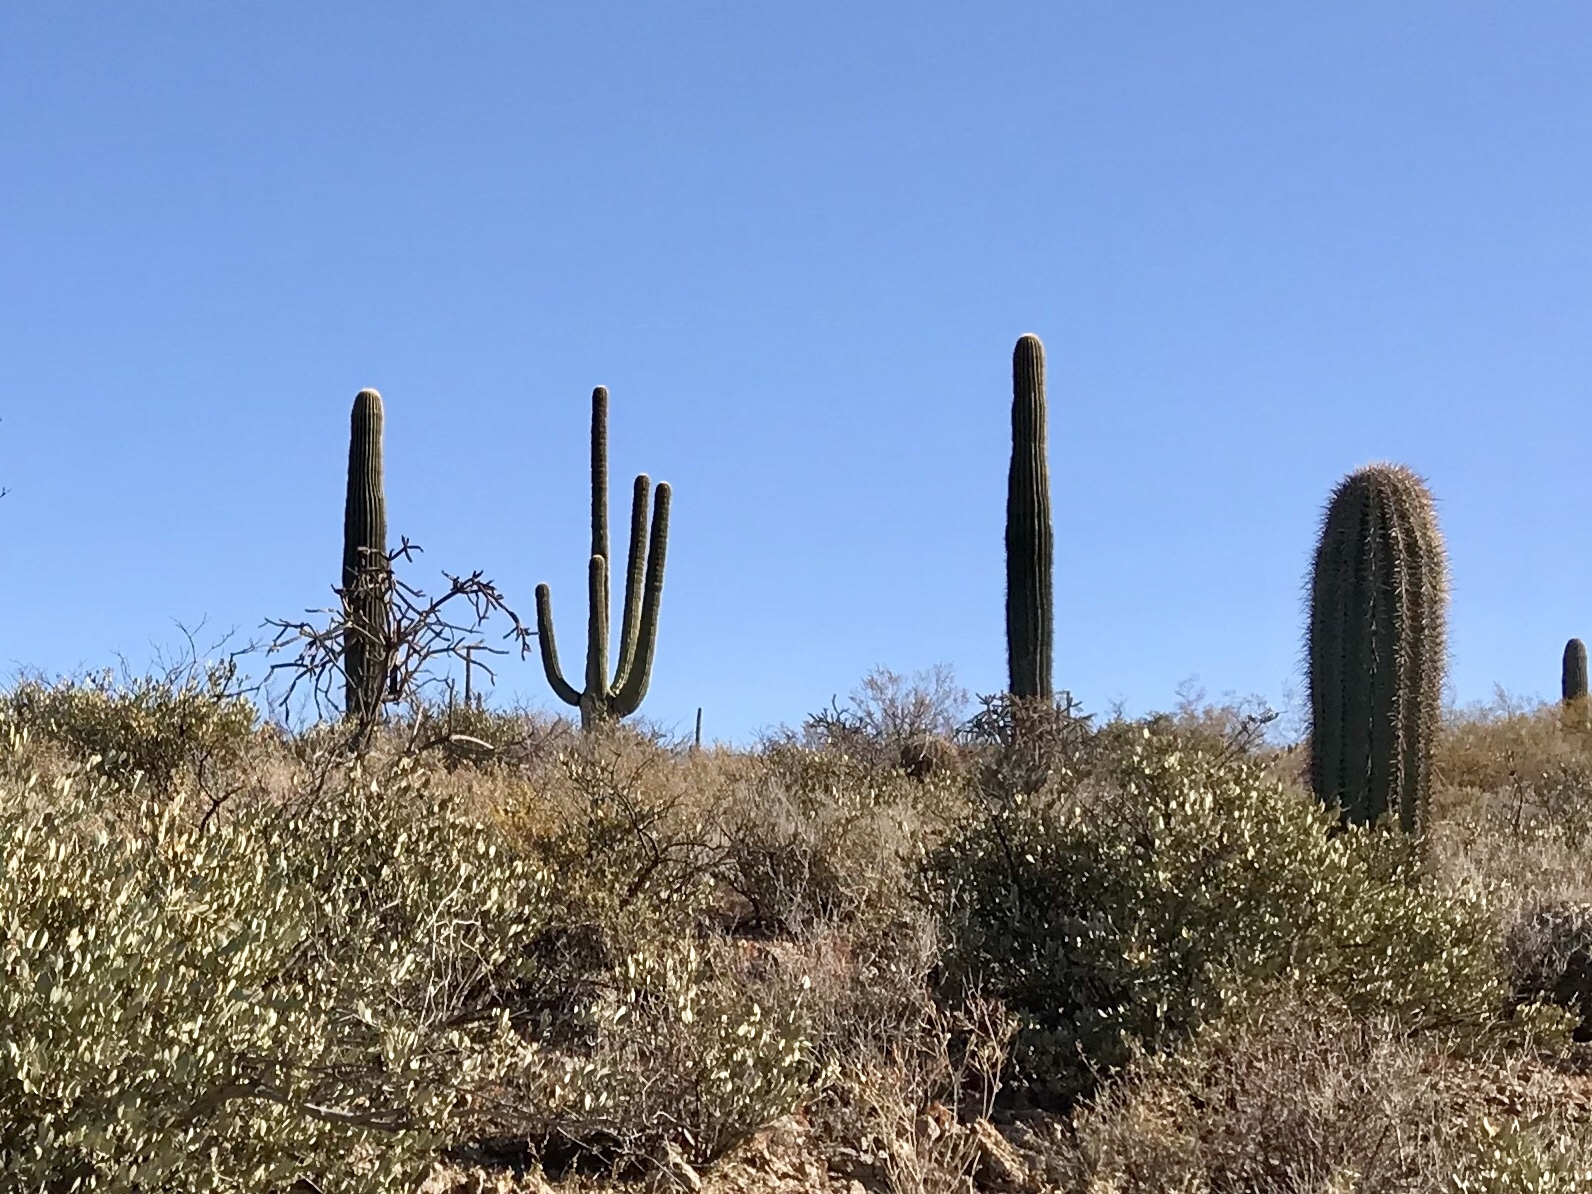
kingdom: Plantae
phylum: Tracheophyta
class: Magnoliopsida
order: Caryophyllales
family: Cactaceae
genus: Carnegiea
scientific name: Carnegiea gigantea
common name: Saguaro
